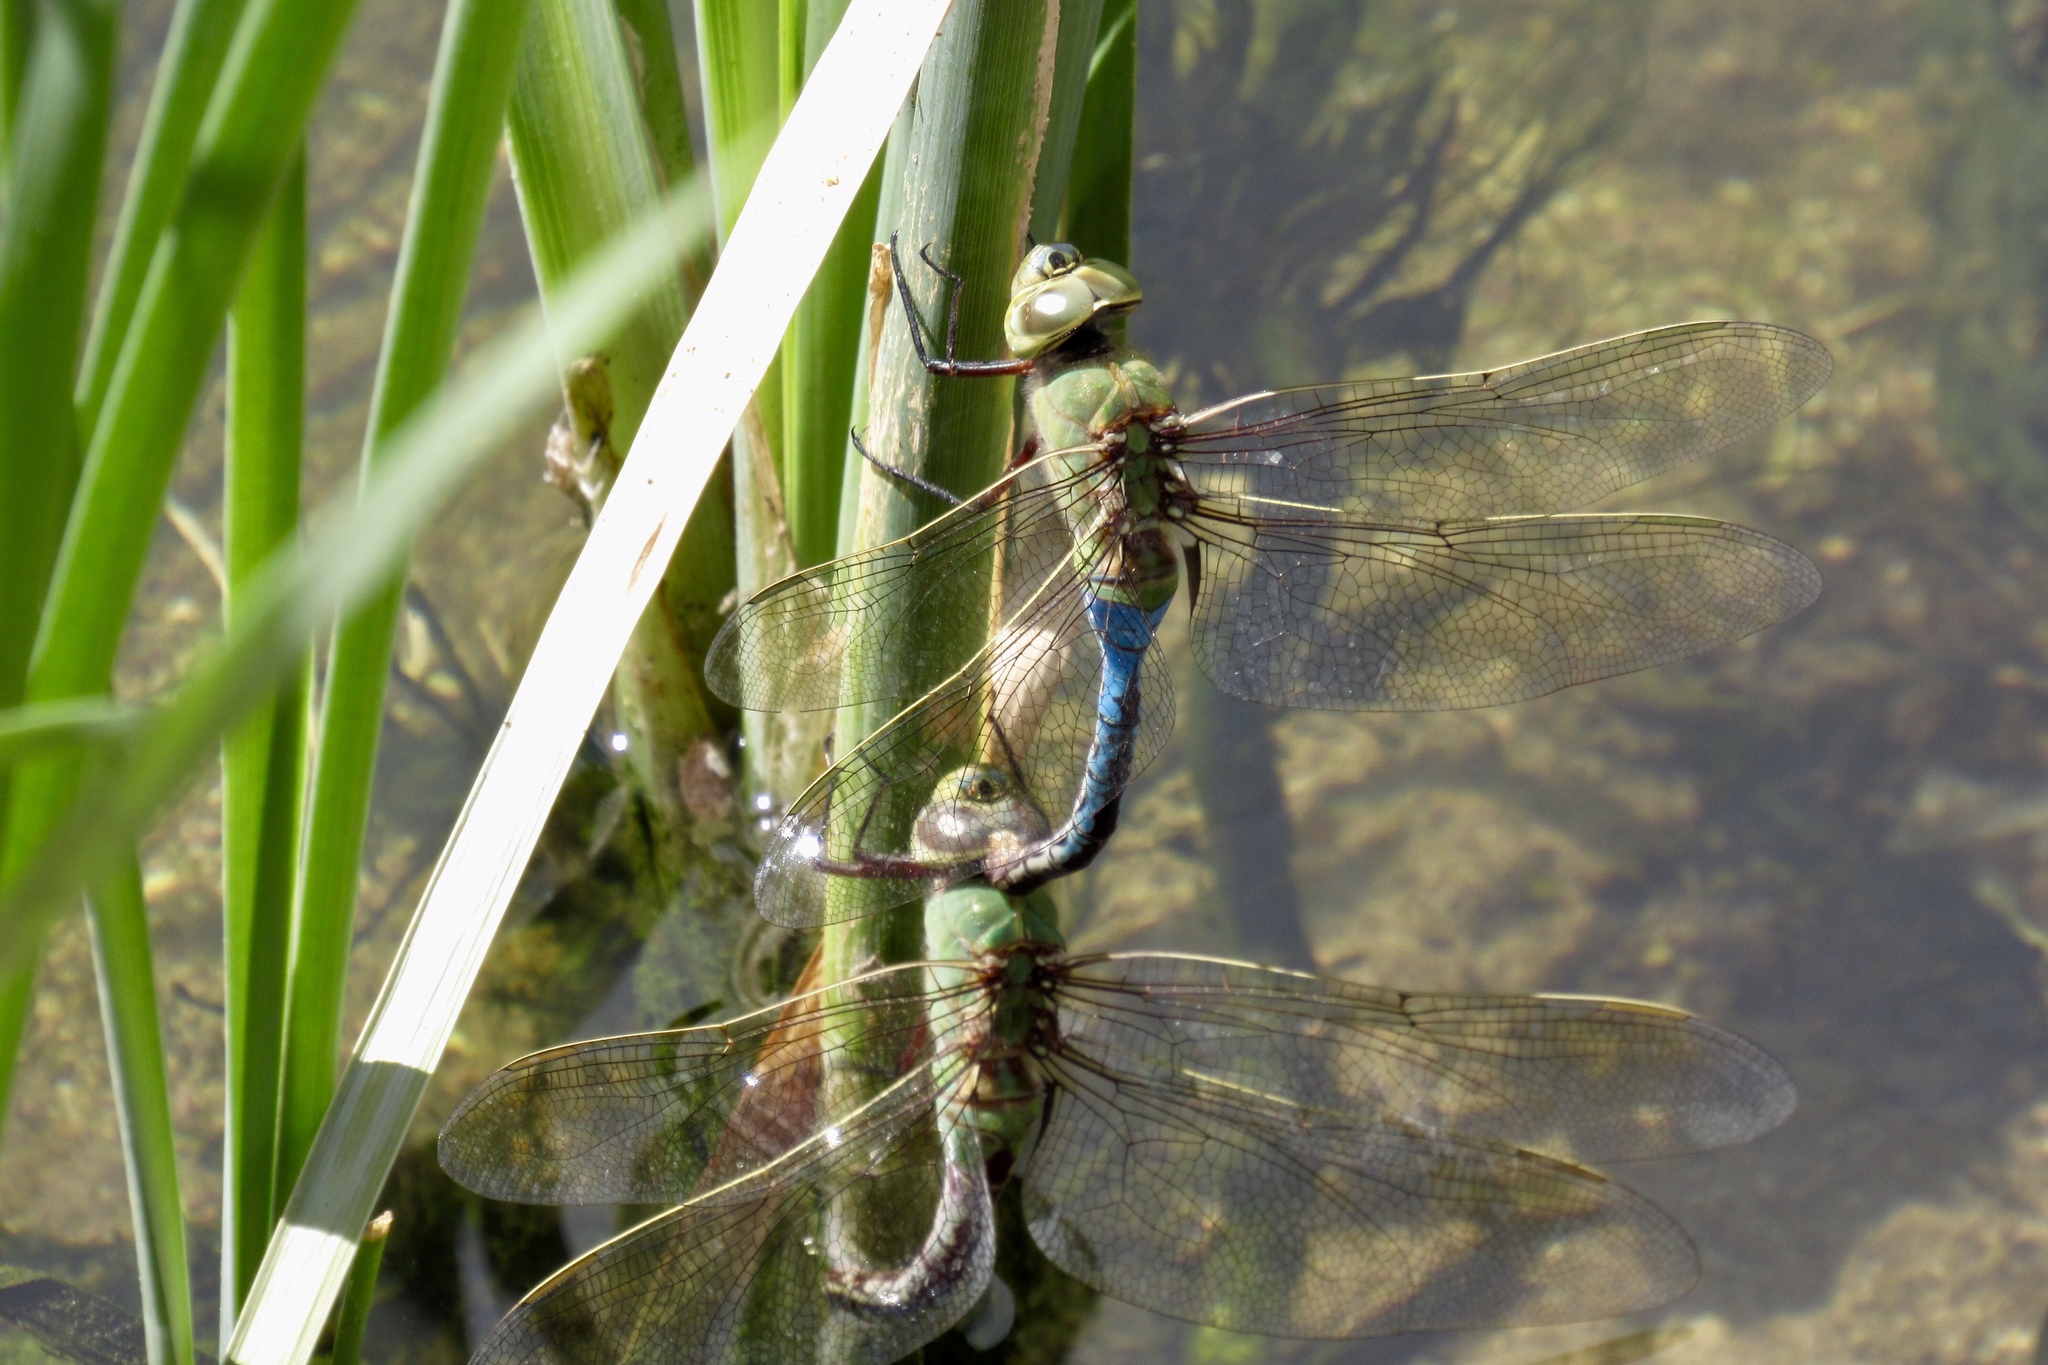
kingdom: Animalia
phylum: Arthropoda
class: Insecta
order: Odonata
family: Aeshnidae
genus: Anax
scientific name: Anax junius
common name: Common green darner
